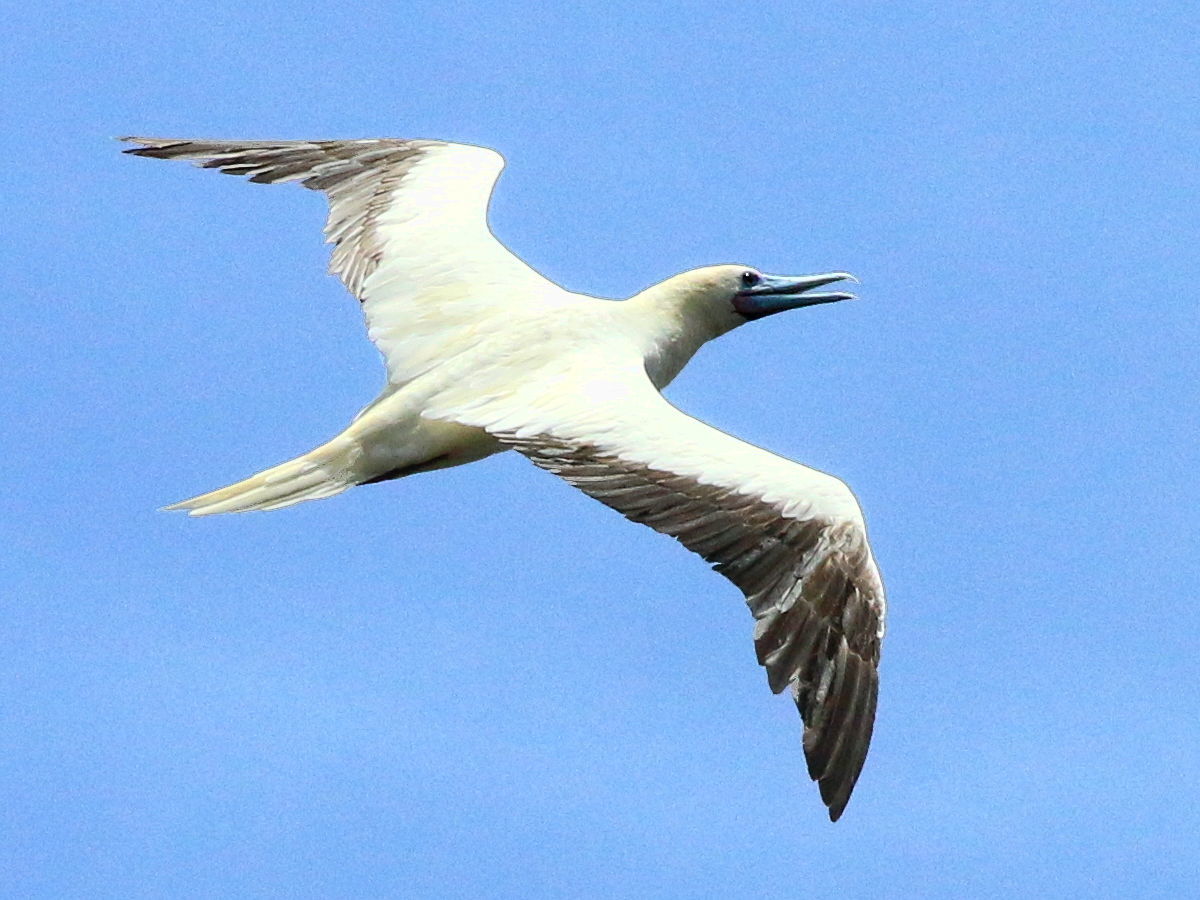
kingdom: Animalia
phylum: Chordata
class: Aves
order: Suliformes
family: Sulidae
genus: Sula
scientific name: Sula sula
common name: Red-footed booby
